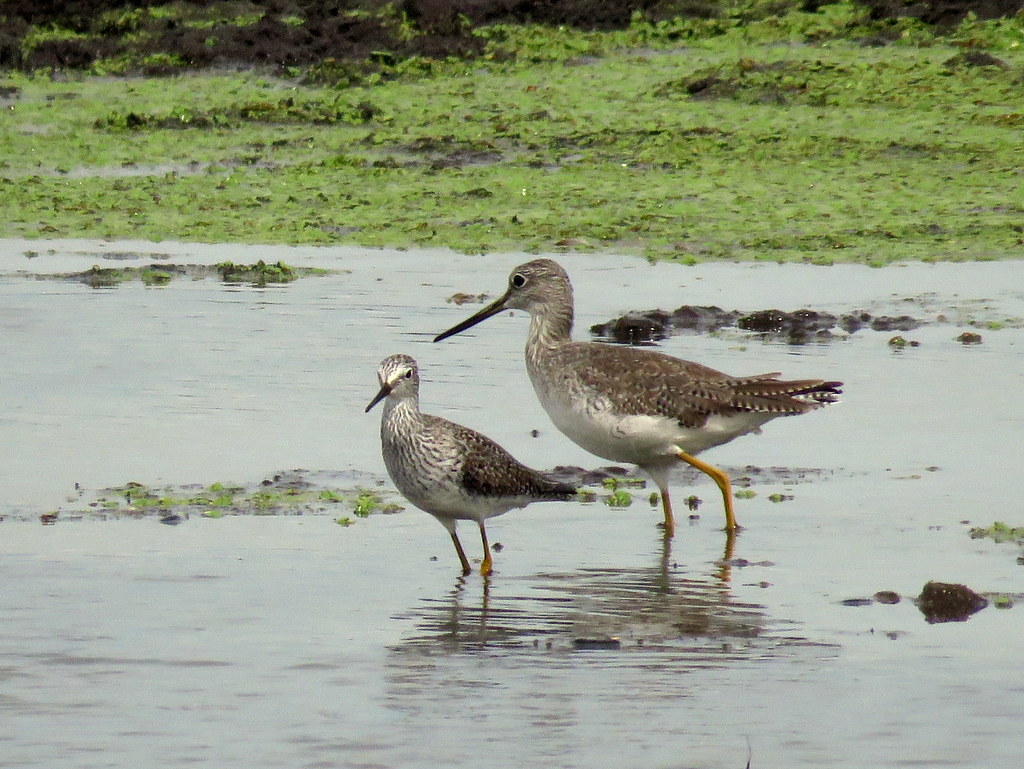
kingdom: Animalia
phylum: Chordata
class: Aves
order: Charadriiformes
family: Scolopacidae
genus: Tringa
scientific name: Tringa melanoleuca
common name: Greater yellowlegs
